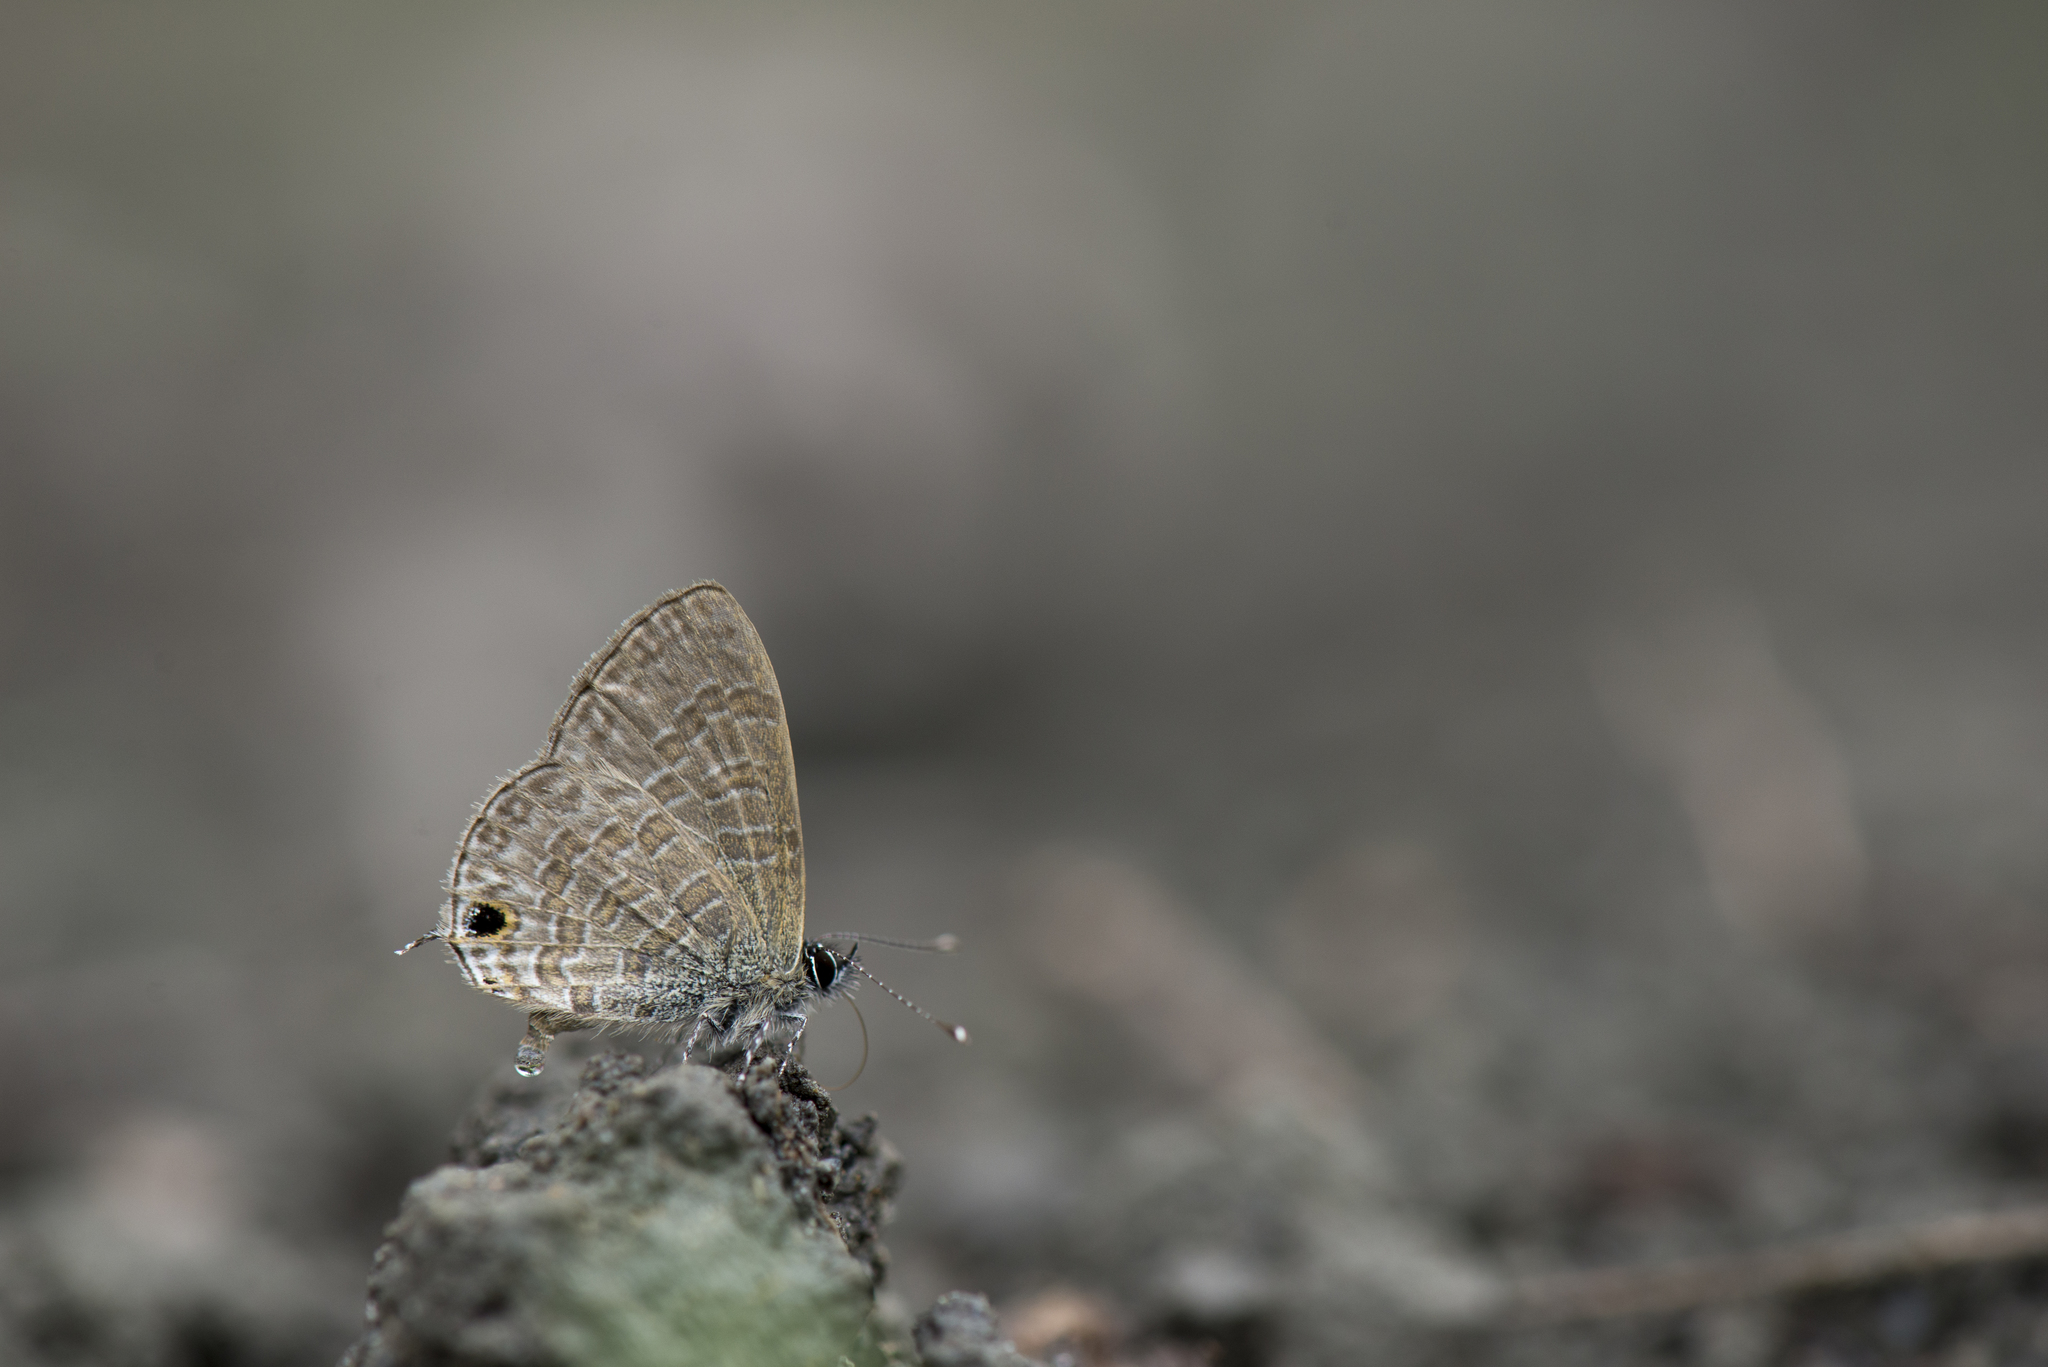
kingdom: Animalia
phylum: Arthropoda
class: Insecta
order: Lepidoptera
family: Lycaenidae
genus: Prosotas
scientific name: Prosotas nora
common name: Common line blue
